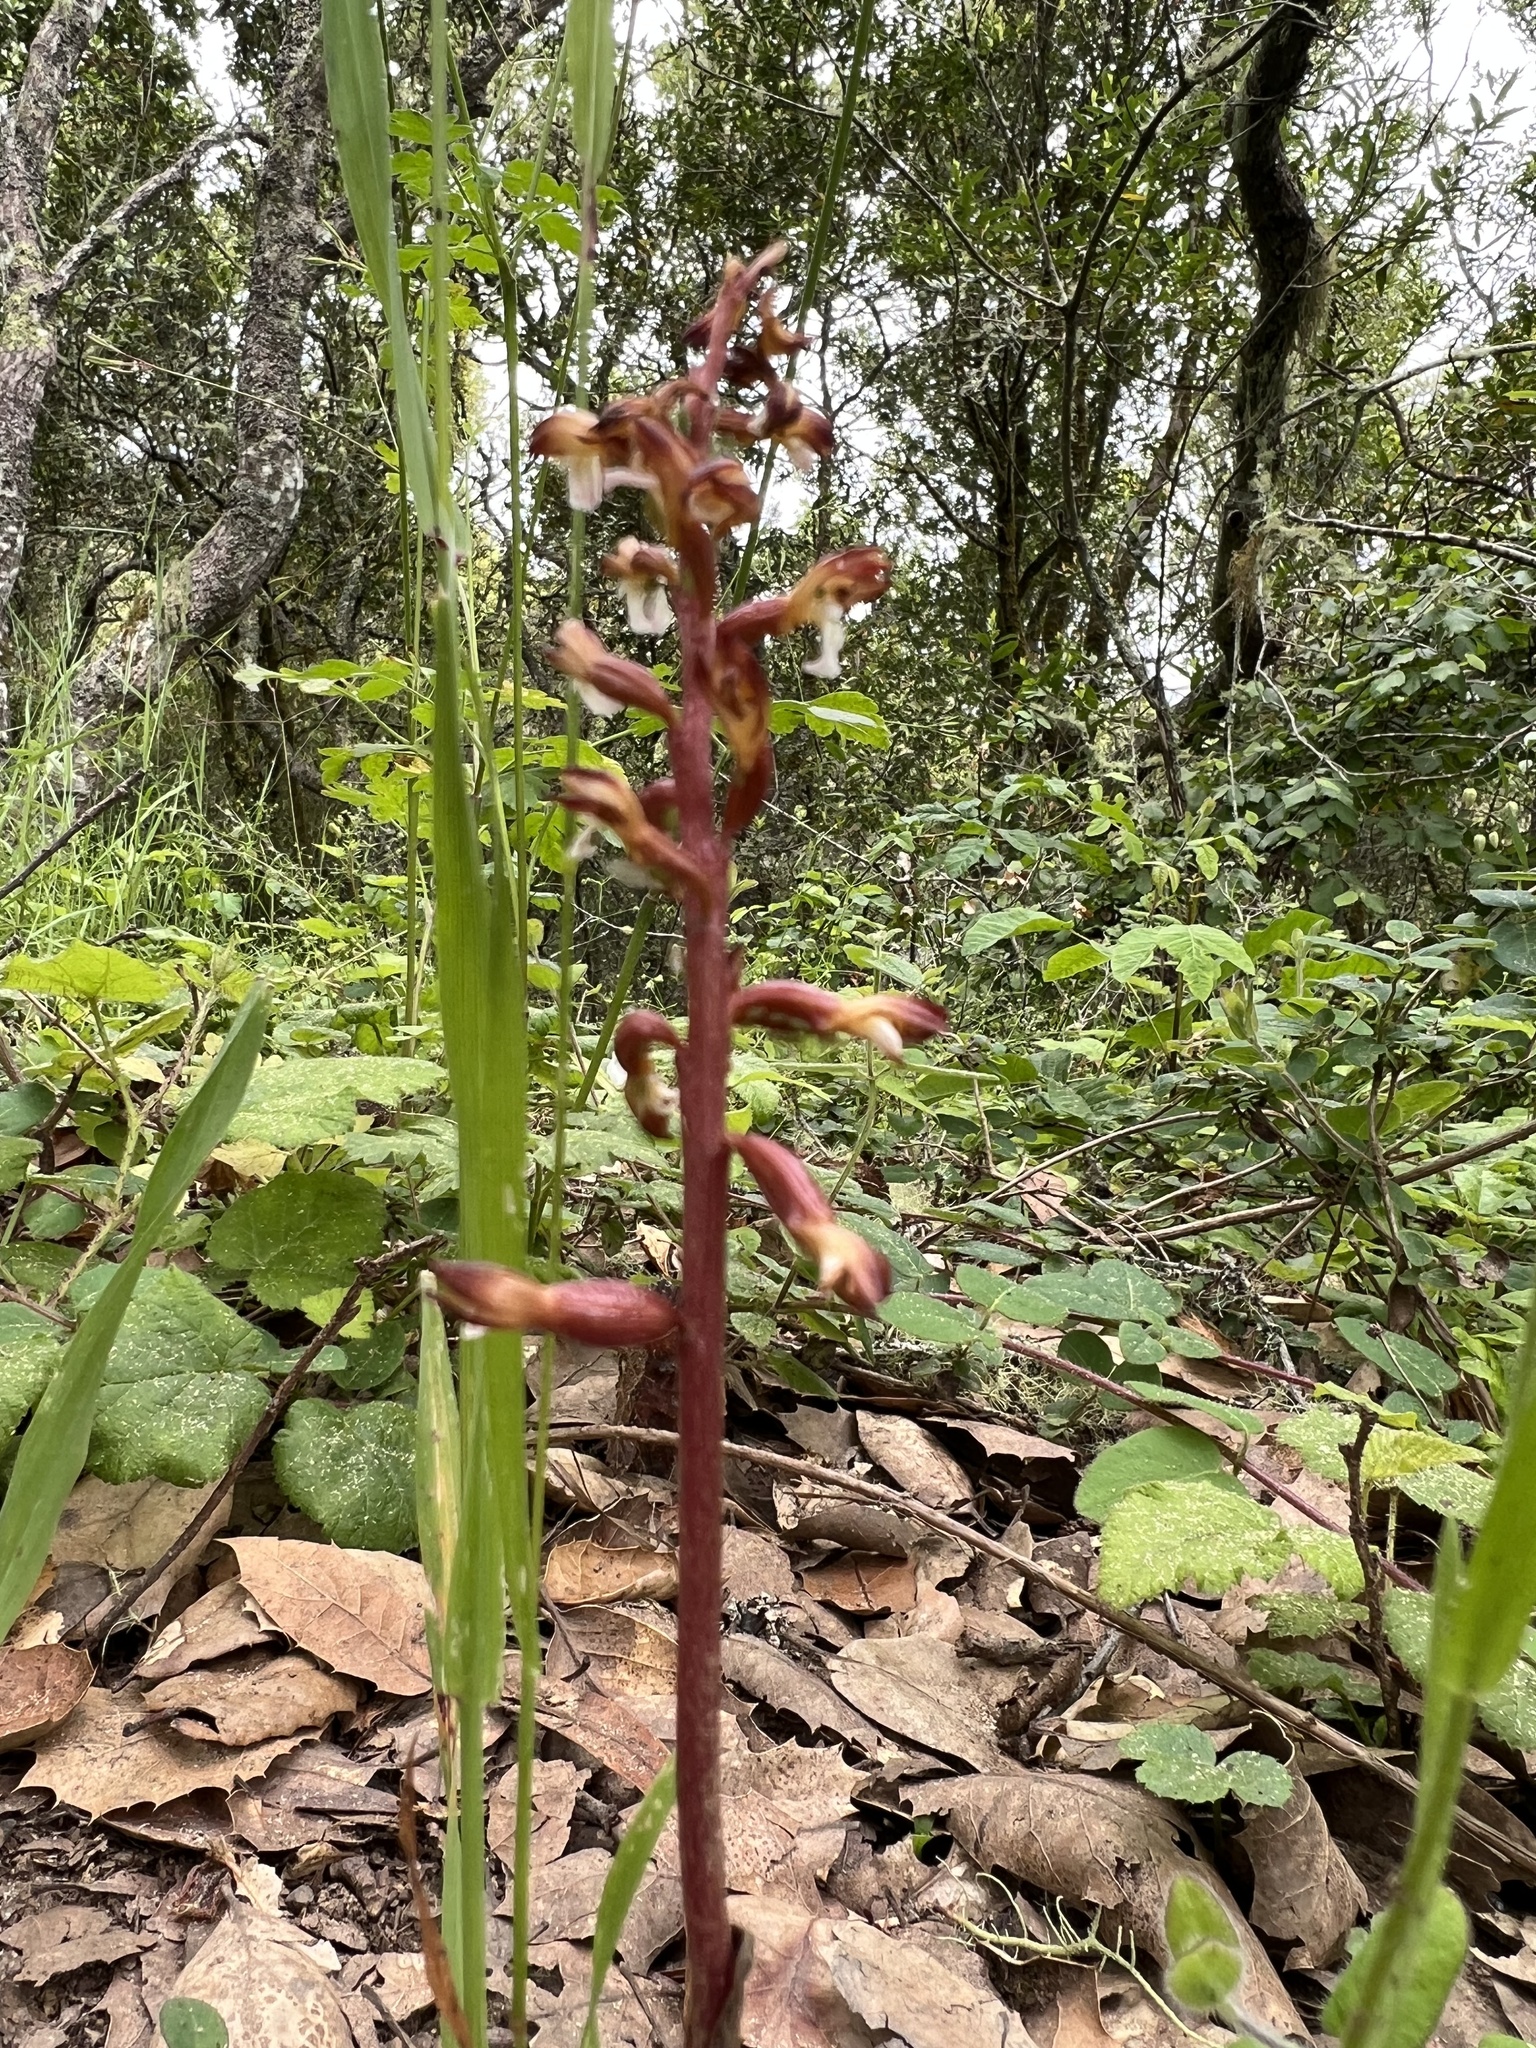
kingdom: Plantae
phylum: Tracheophyta
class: Liliopsida
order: Asparagales
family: Orchidaceae
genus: Corallorhiza
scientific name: Corallorhiza maculata
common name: Spotted coralroot
